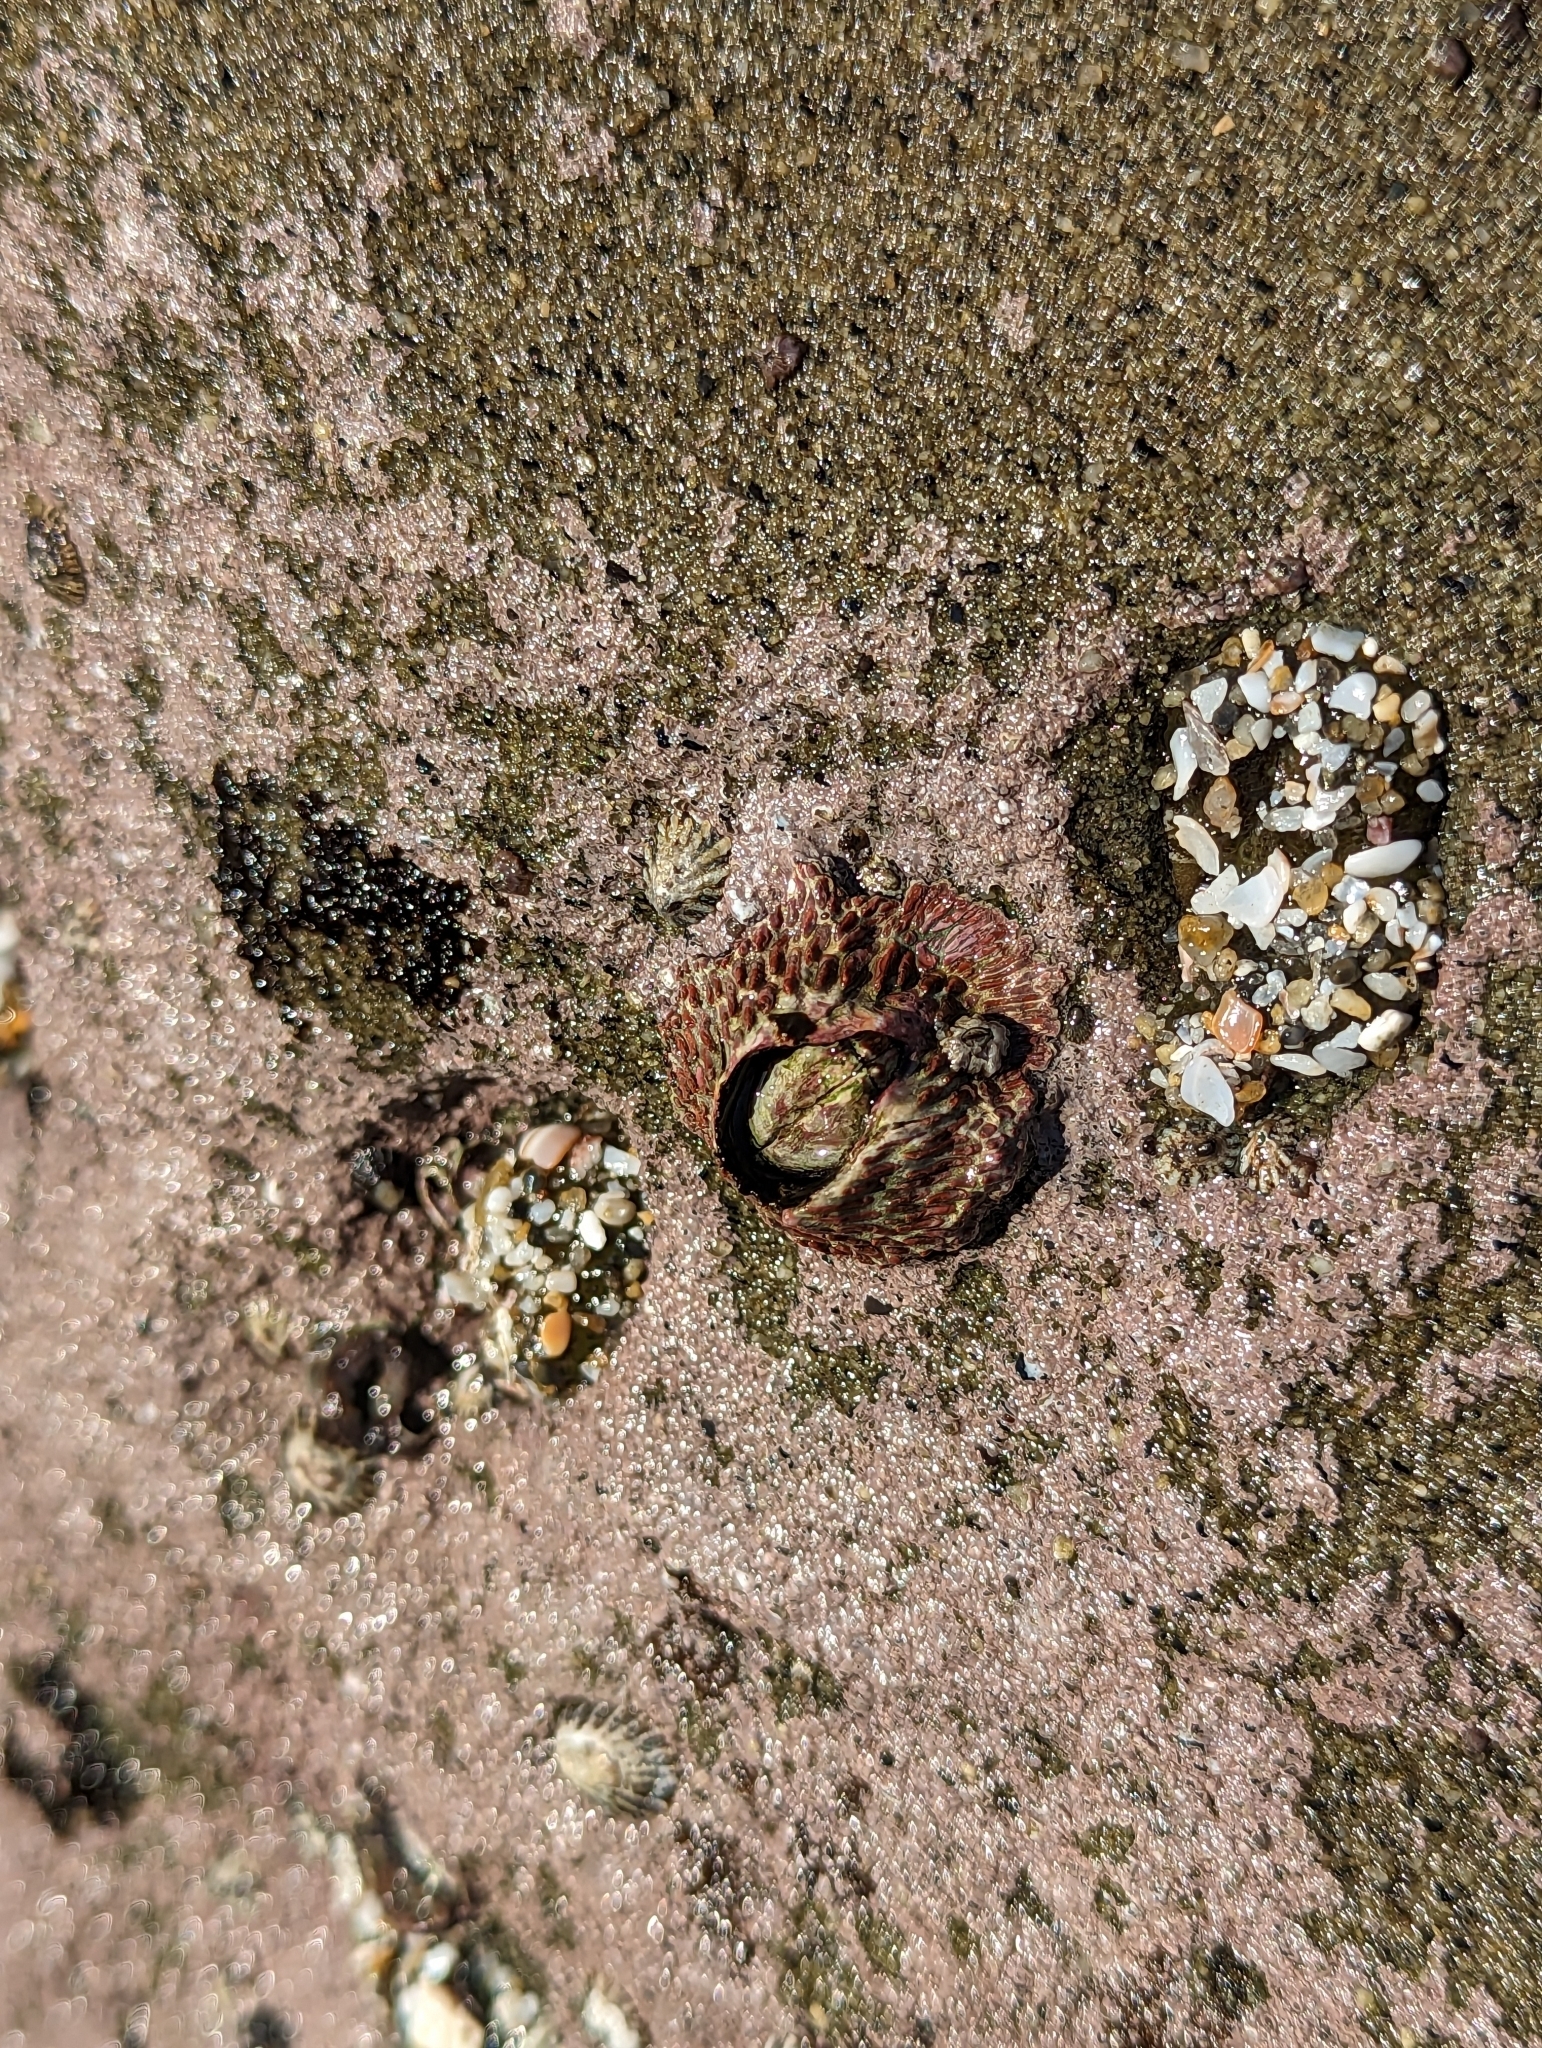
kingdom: Animalia
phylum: Arthropoda
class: Maxillopoda
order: Sessilia
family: Tetraclitidae
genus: Tetraclita
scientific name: Tetraclita rubescens
